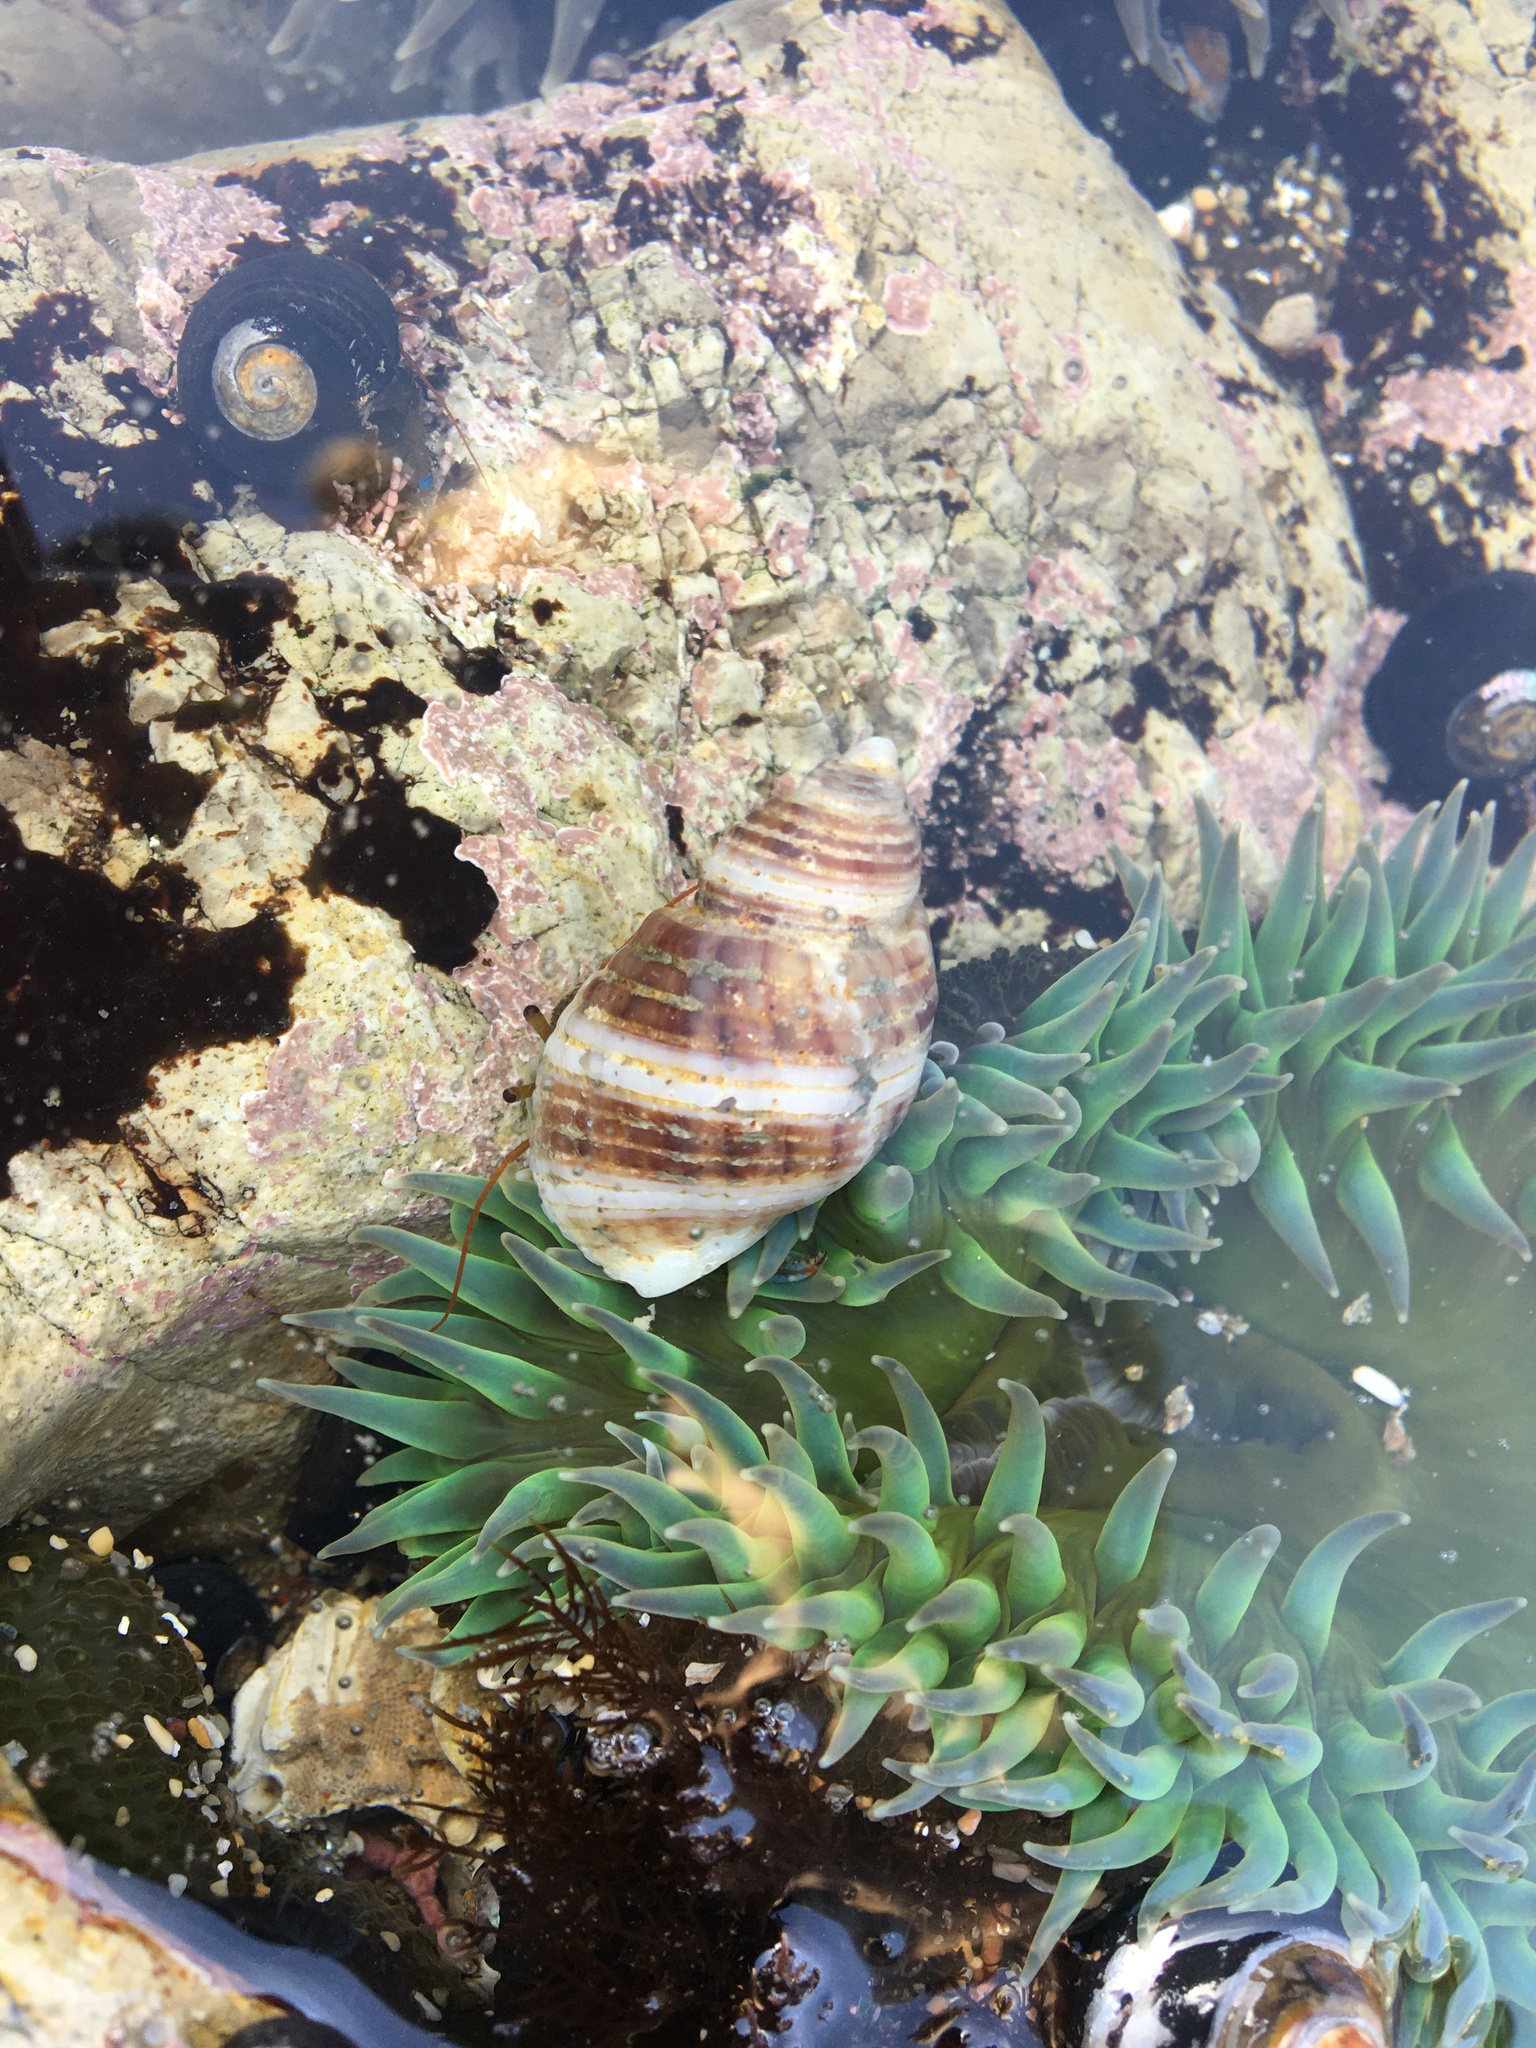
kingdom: Animalia
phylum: Mollusca
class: Gastropoda
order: Neogastropoda
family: Muricidae
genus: Nucella
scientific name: Nucella analoga
